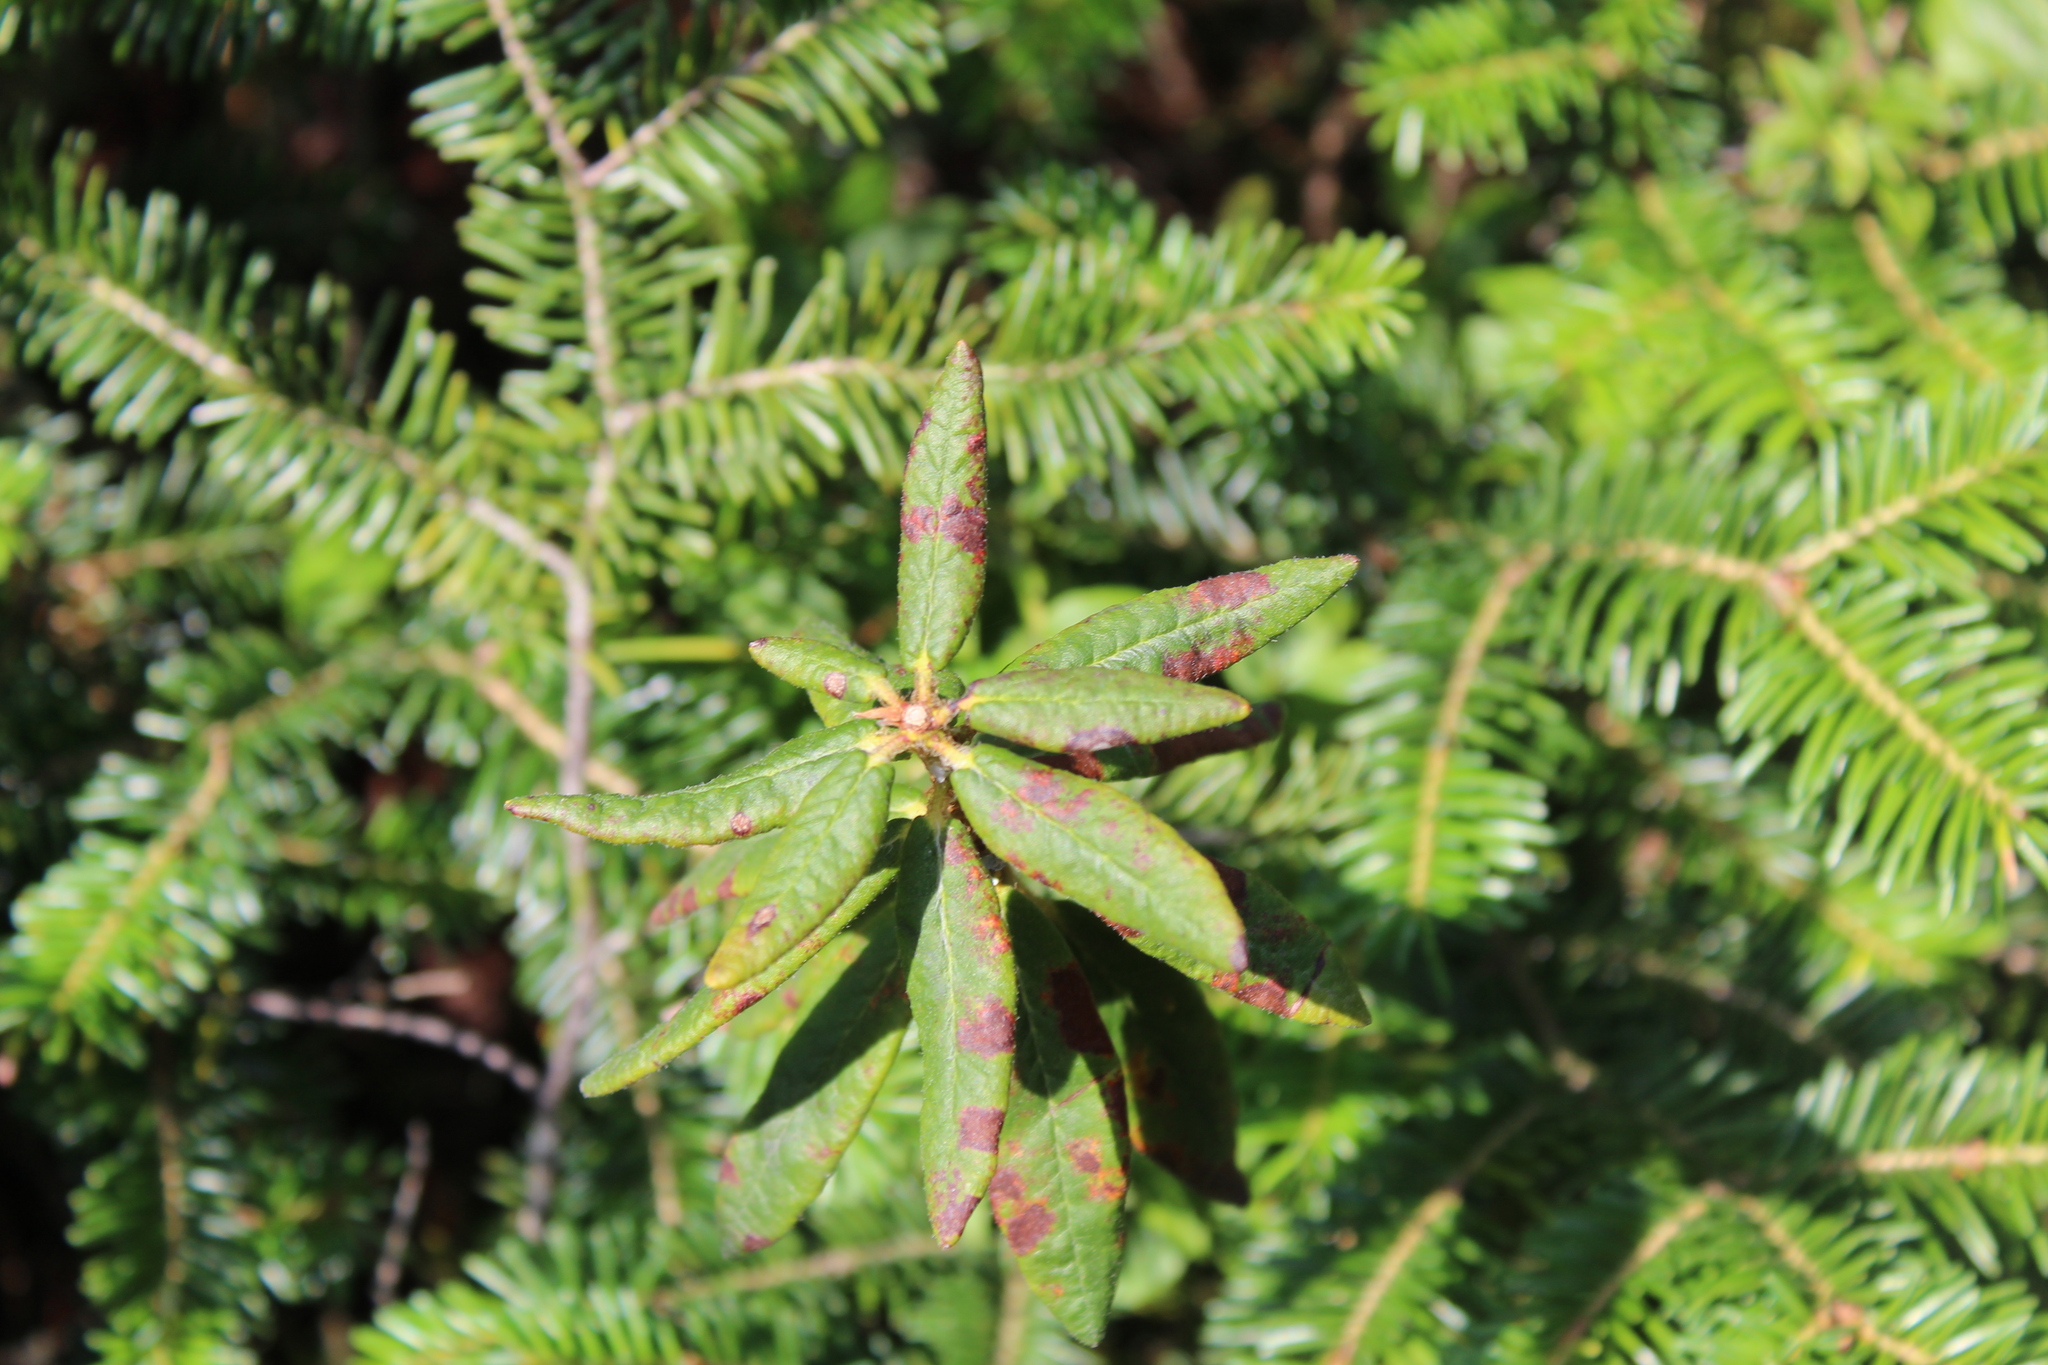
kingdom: Plantae
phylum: Tracheophyta
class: Magnoliopsida
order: Ericales
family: Ericaceae
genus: Rhododendron
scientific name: Rhododendron groenlandicum
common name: Bog labrador tea
